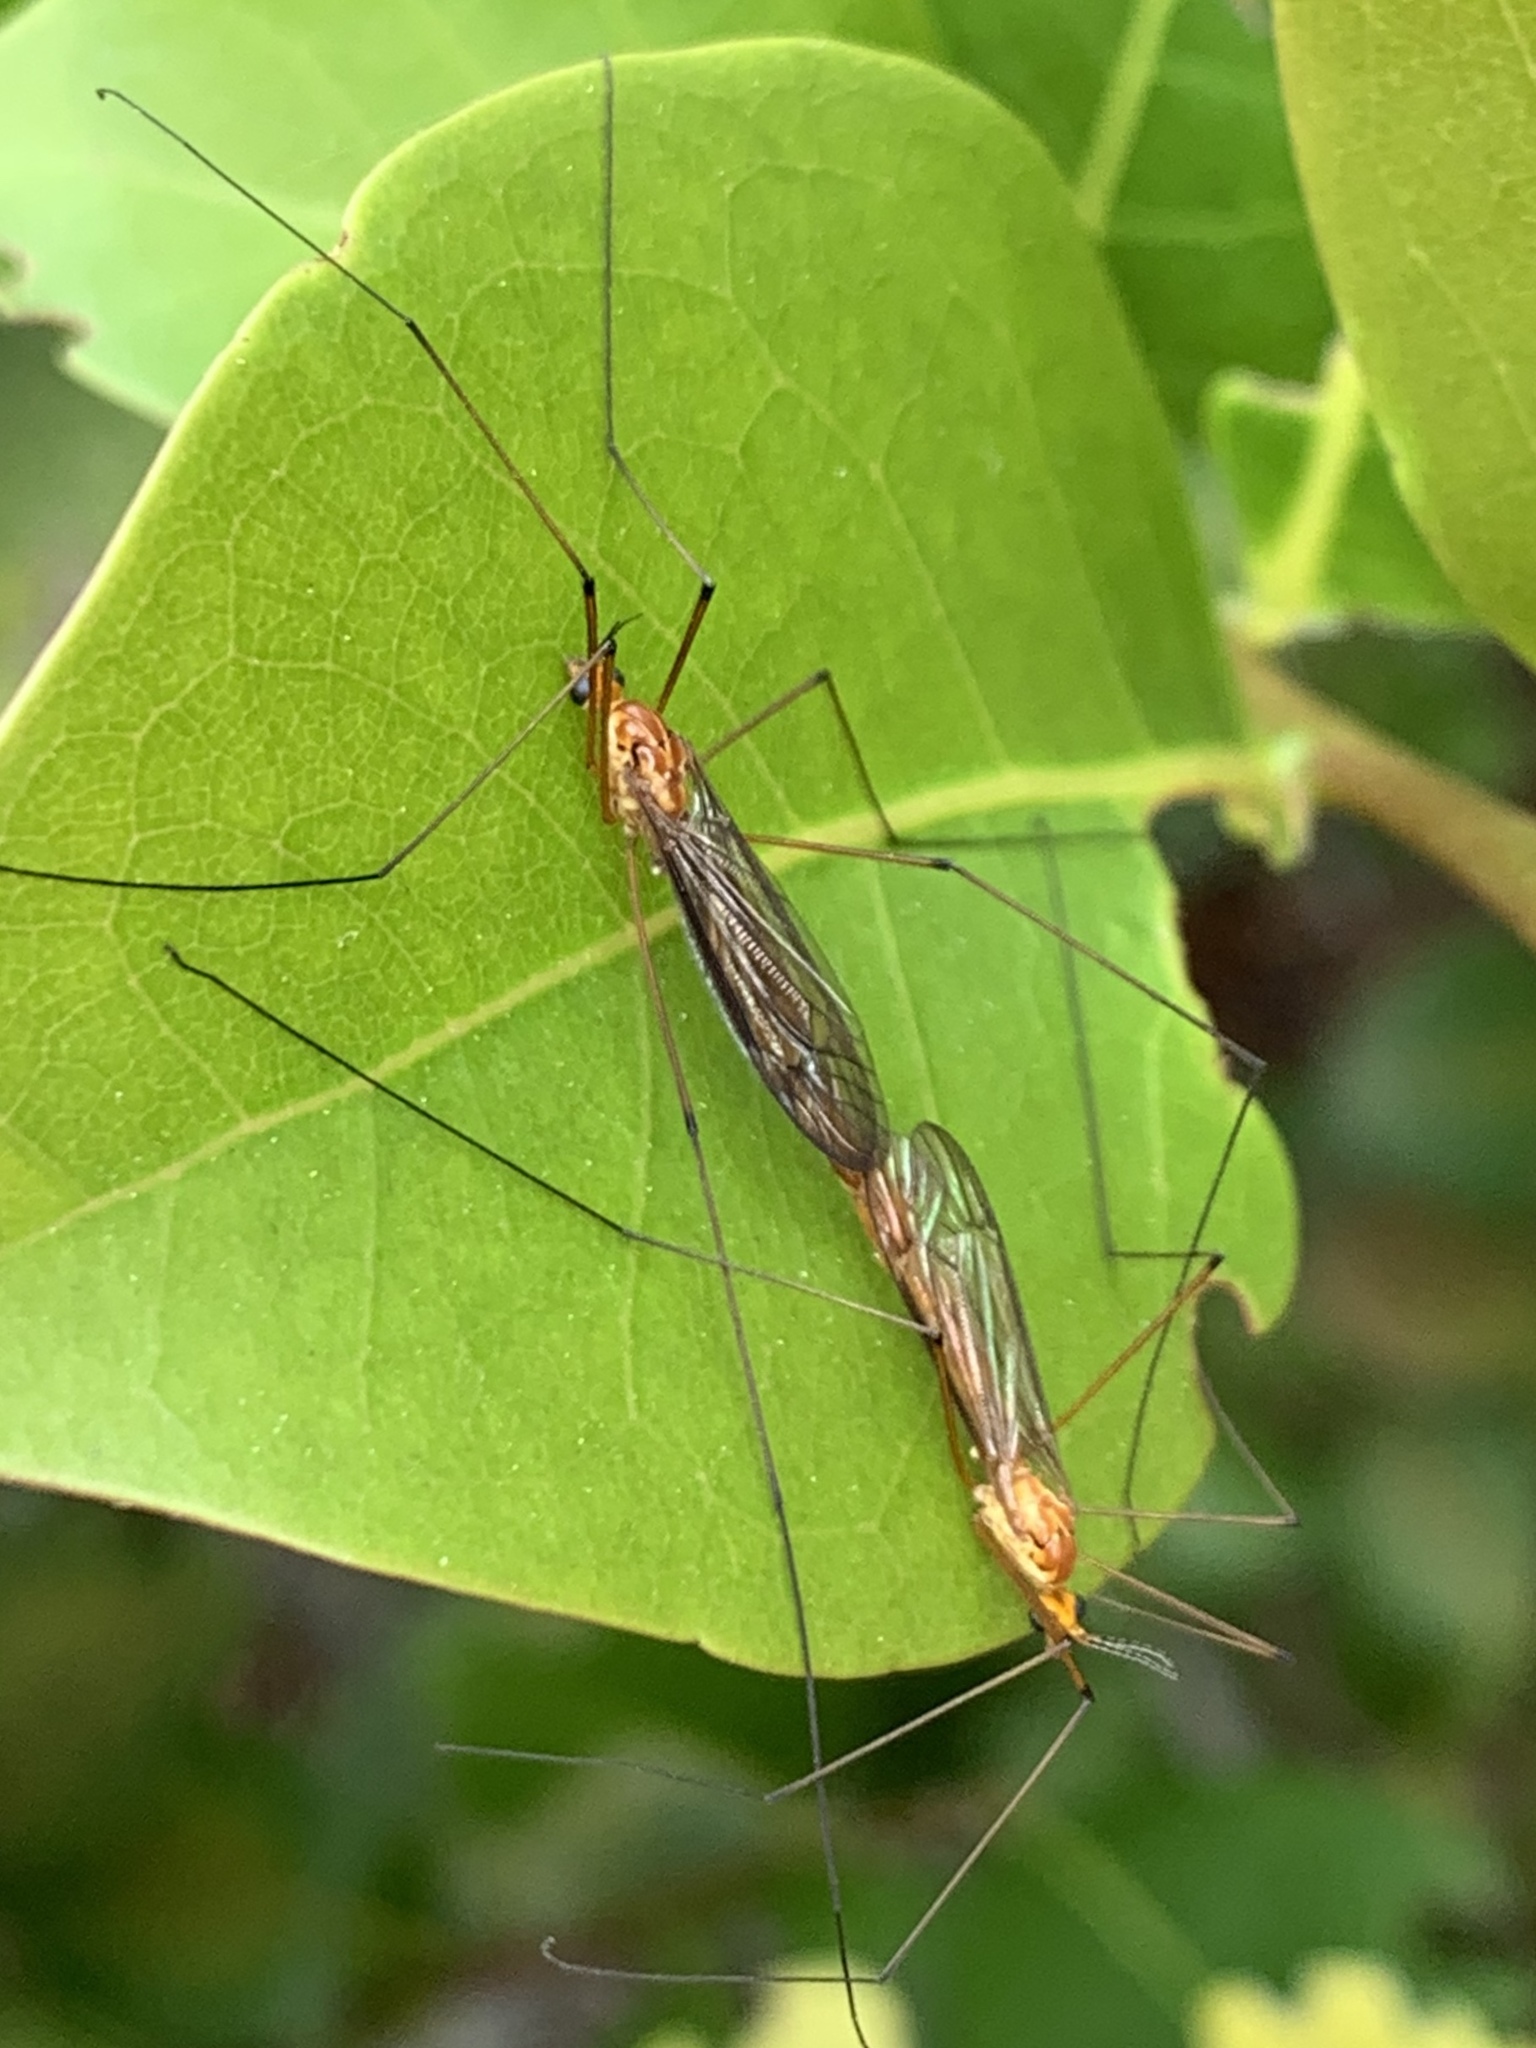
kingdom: Animalia
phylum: Arthropoda
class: Insecta
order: Diptera
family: Tipulidae
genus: Nephrotoma
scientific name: Nephrotoma suturalis
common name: Cranefly
